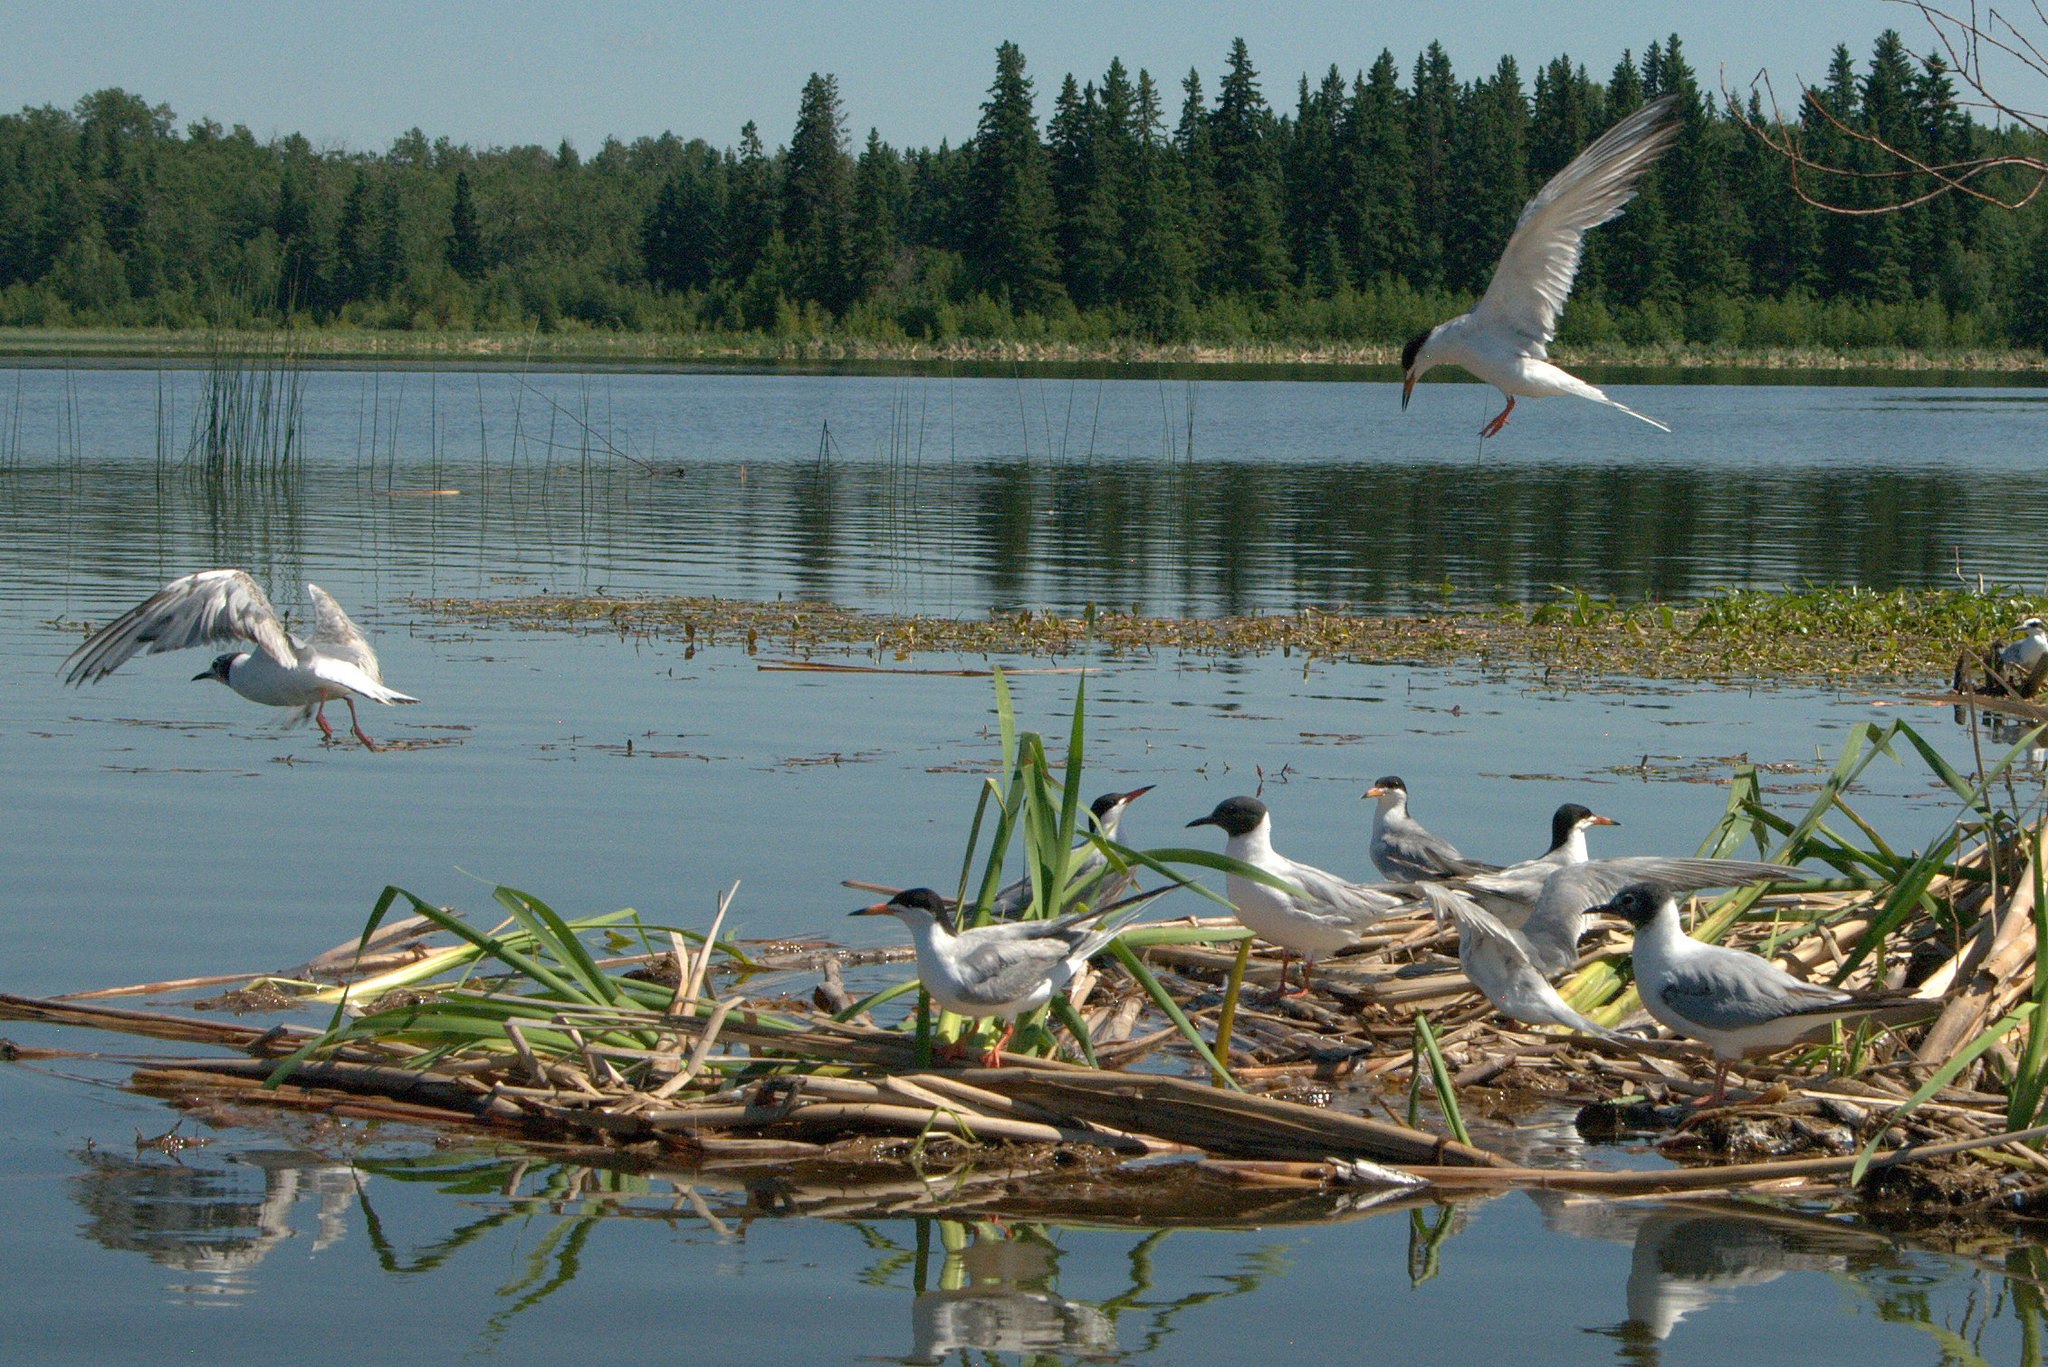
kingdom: Animalia
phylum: Chordata
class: Aves
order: Charadriiformes
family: Laridae
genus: Sterna
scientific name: Sterna forsteri
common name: Forster's tern
